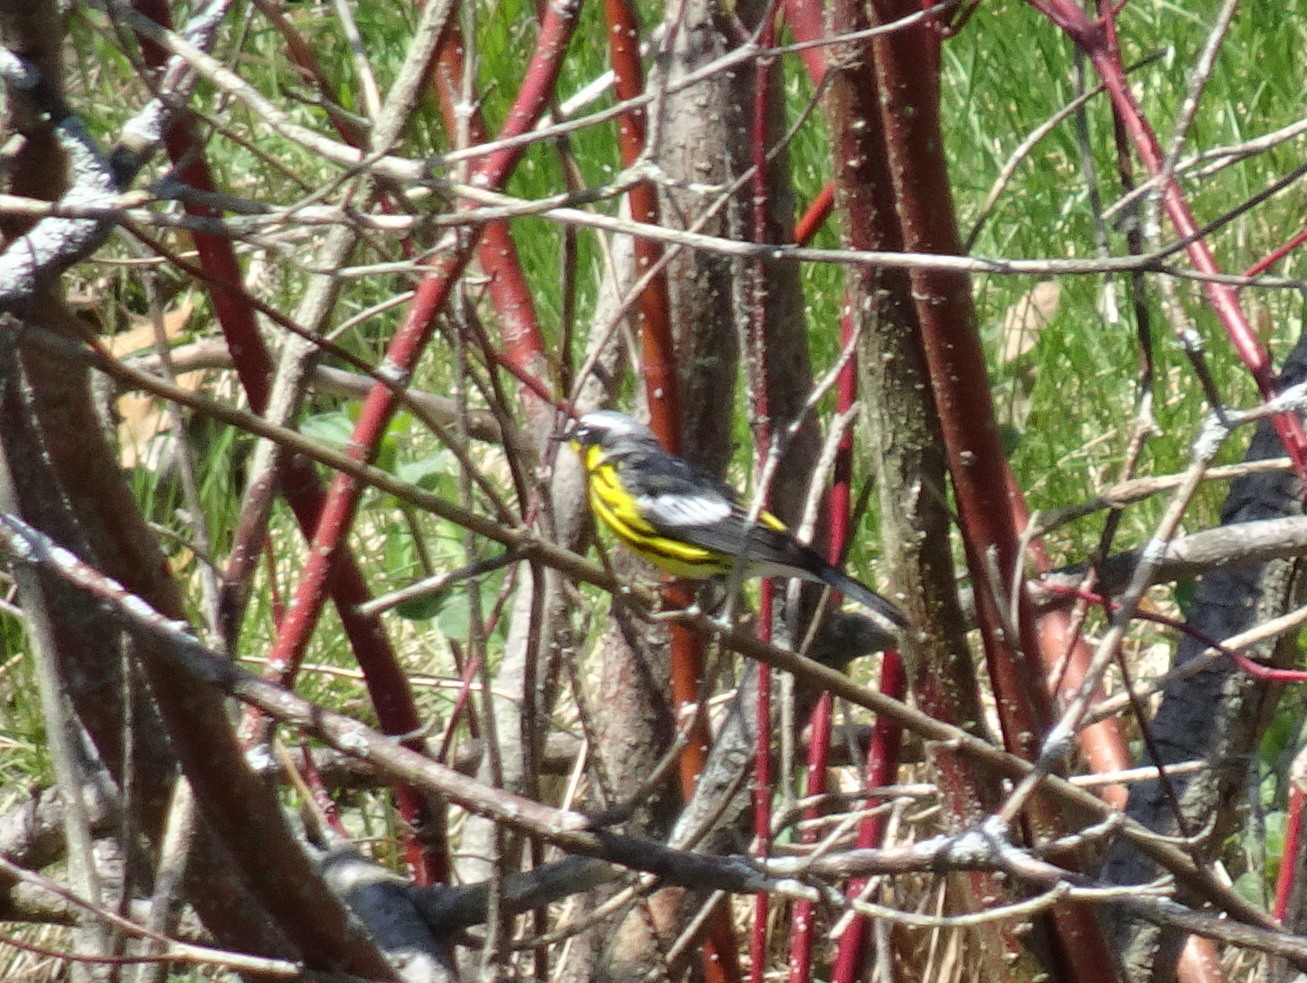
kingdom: Animalia
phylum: Chordata
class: Aves
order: Passeriformes
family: Parulidae
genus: Setophaga
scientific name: Setophaga magnolia
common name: Magnolia warbler
